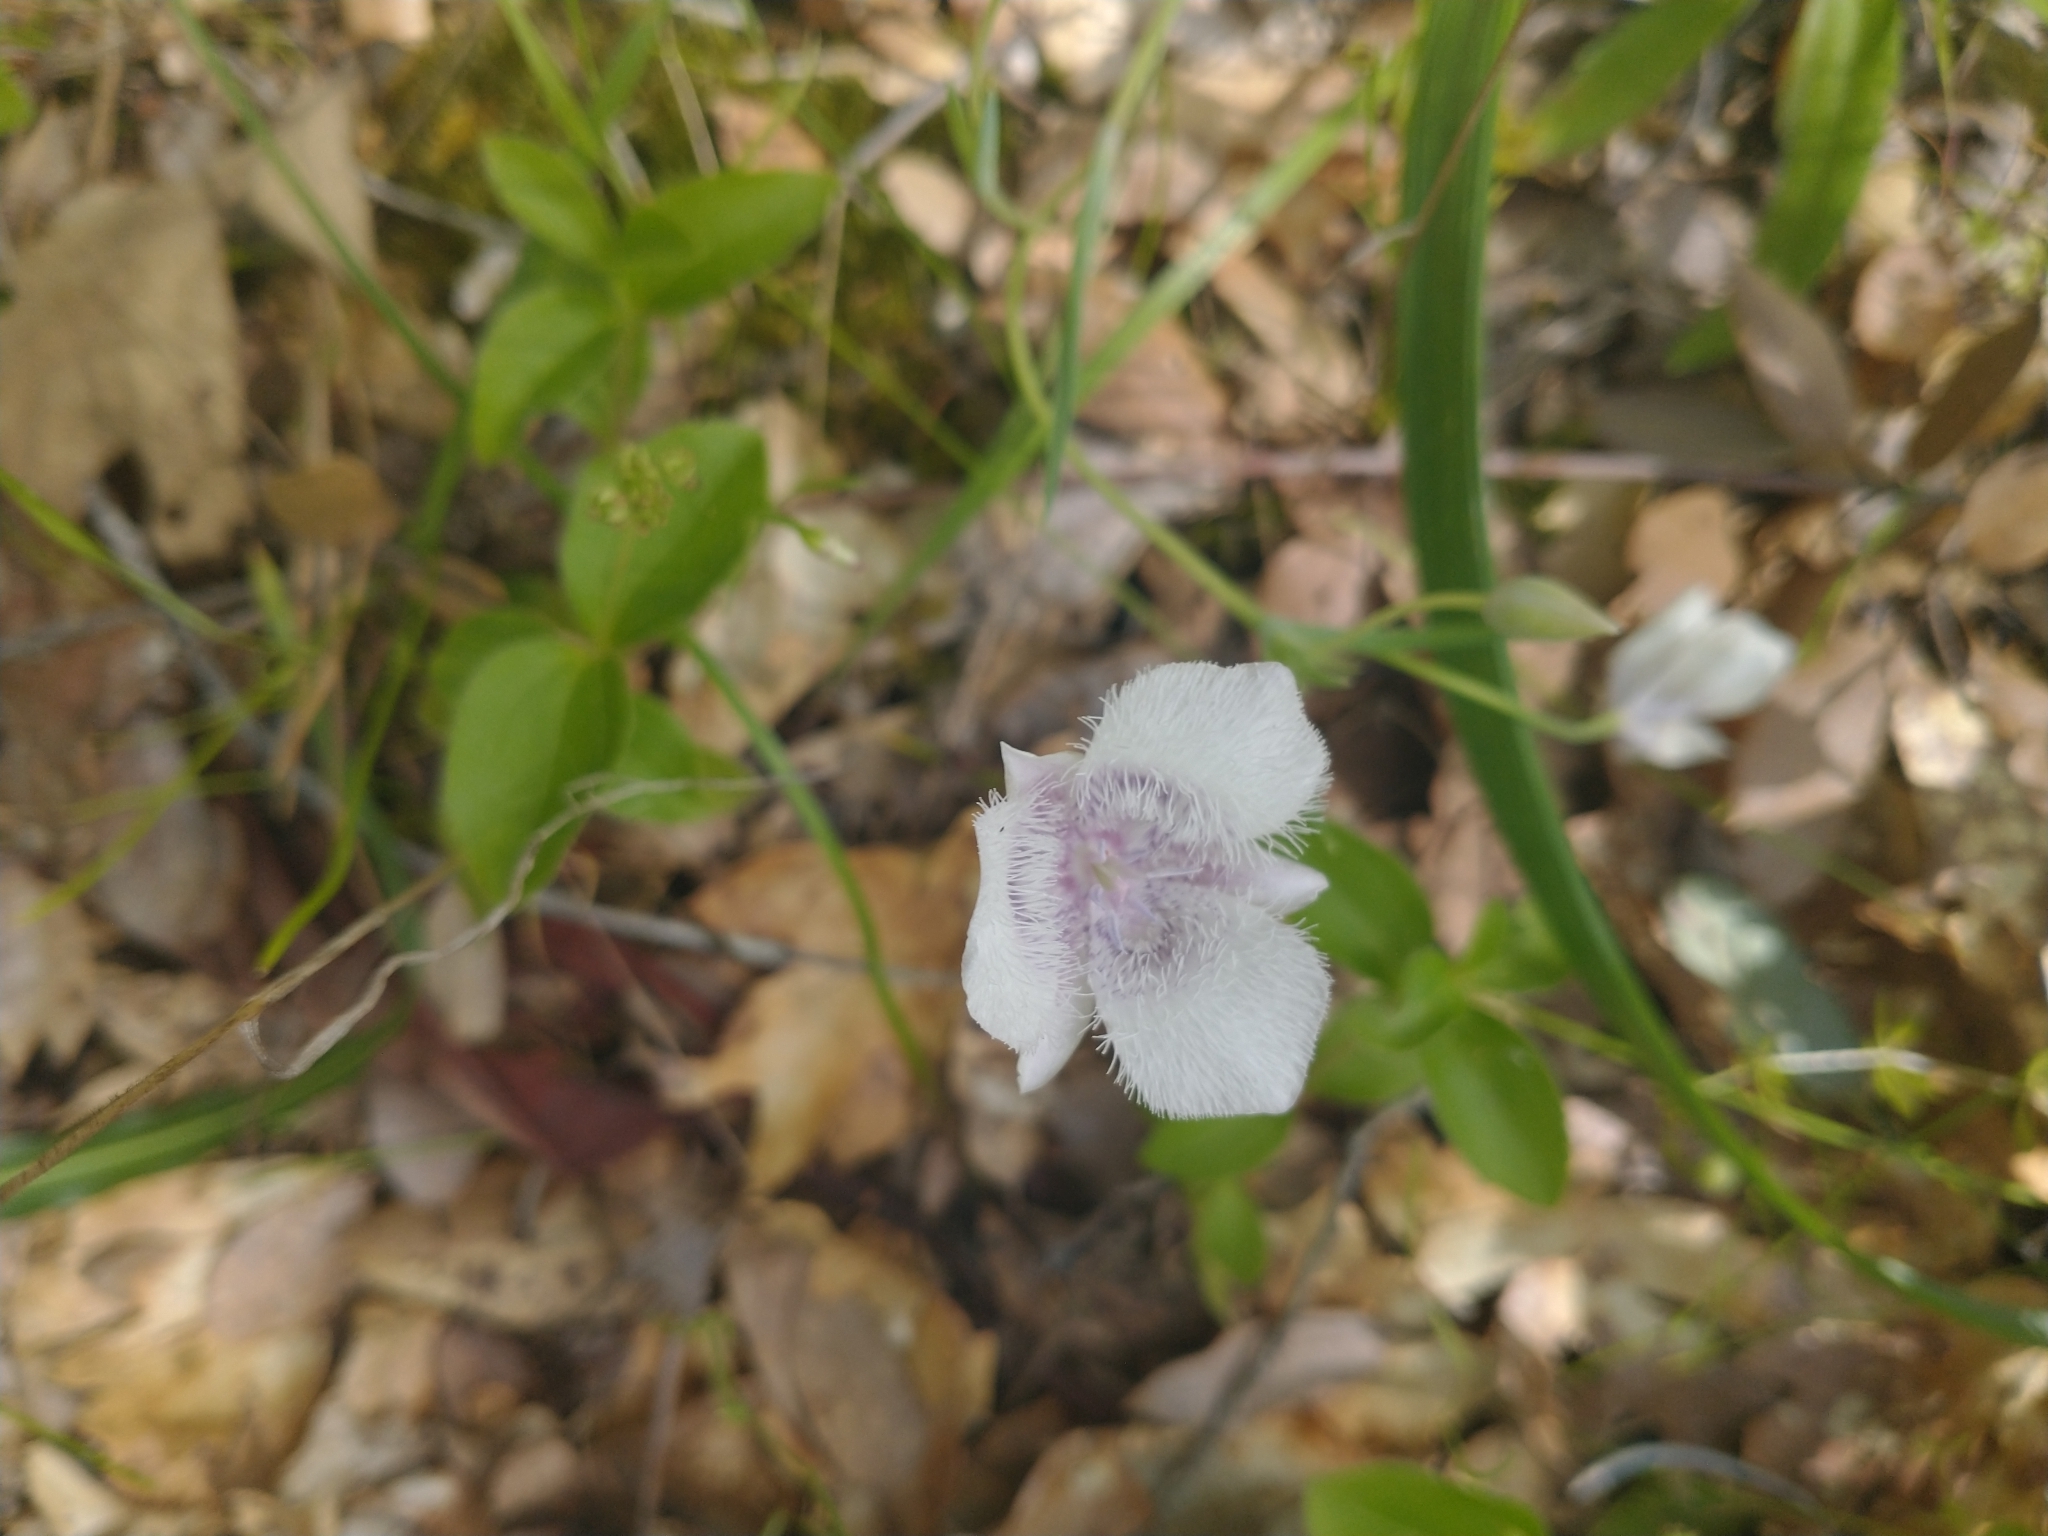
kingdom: Plantae
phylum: Tracheophyta
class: Liliopsida
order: Liliales
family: Liliaceae
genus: Calochortus
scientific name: Calochortus tolmiei
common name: Pussy-ears
